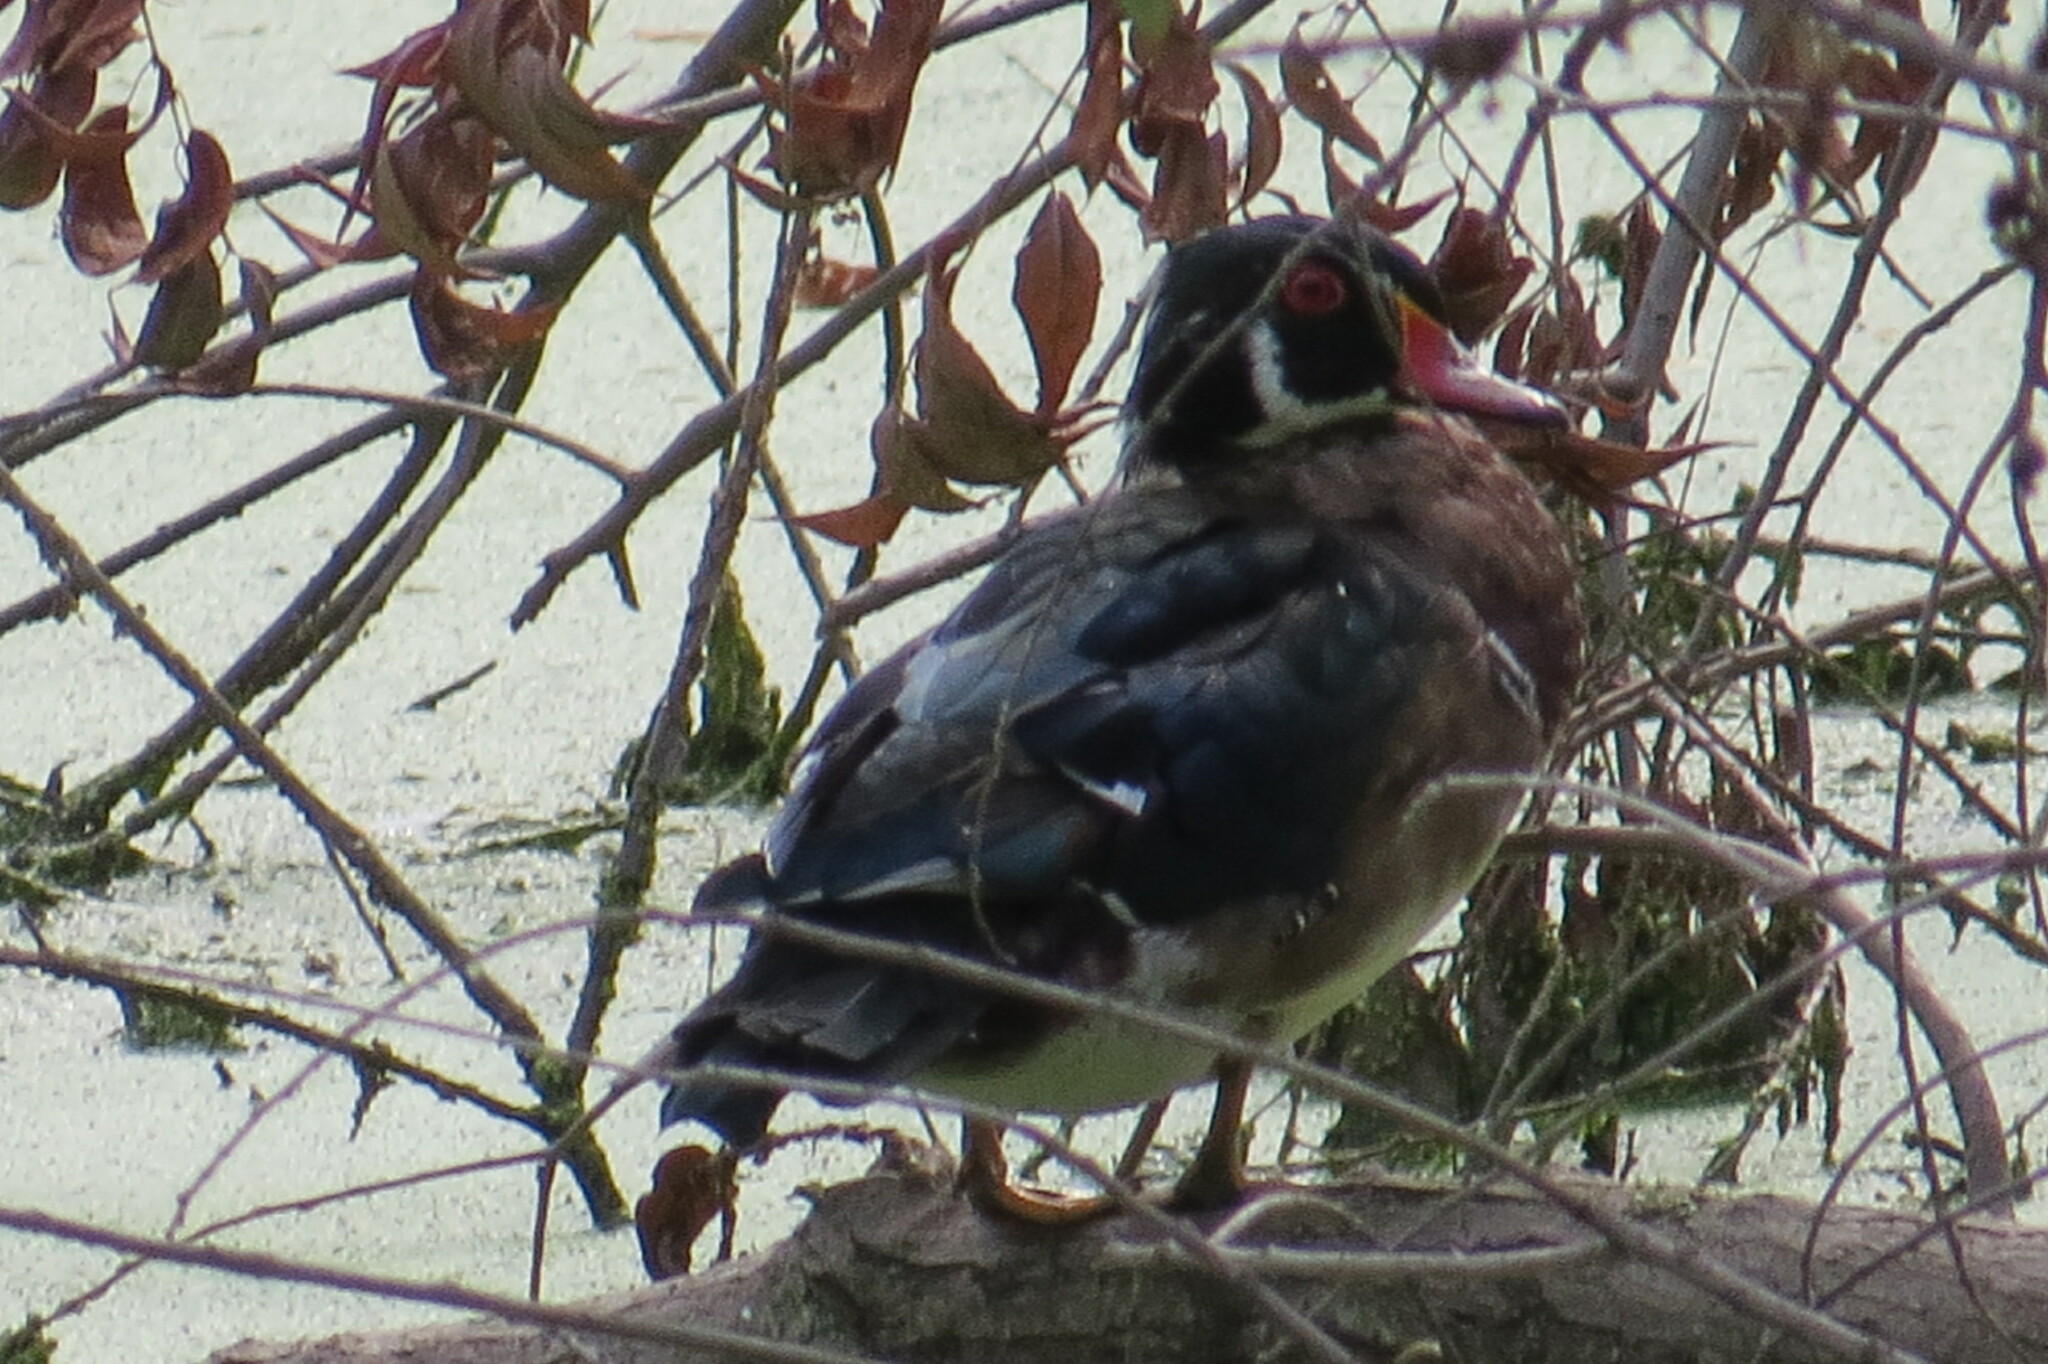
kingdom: Animalia
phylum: Chordata
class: Aves
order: Anseriformes
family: Anatidae
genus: Aix
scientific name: Aix sponsa
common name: Wood duck
